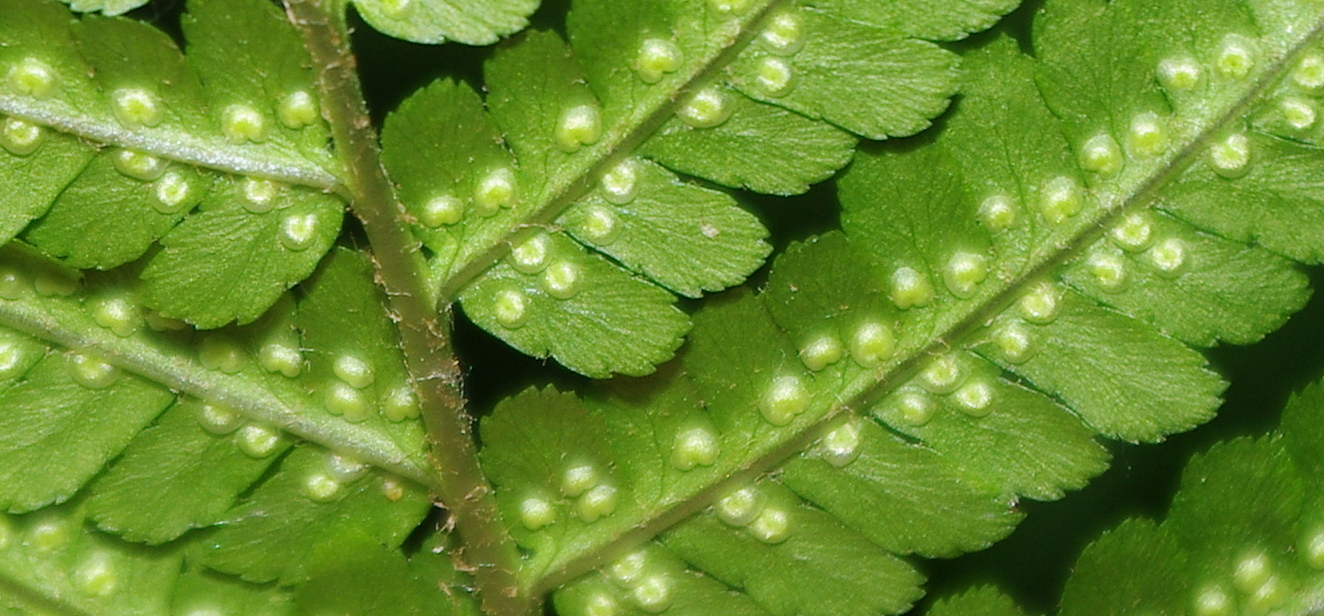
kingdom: Plantae
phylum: Tracheophyta
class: Polypodiopsida
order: Polypodiales
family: Dryopteridaceae
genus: Dryopteris
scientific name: Dryopteris filix-mas
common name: Male fern
